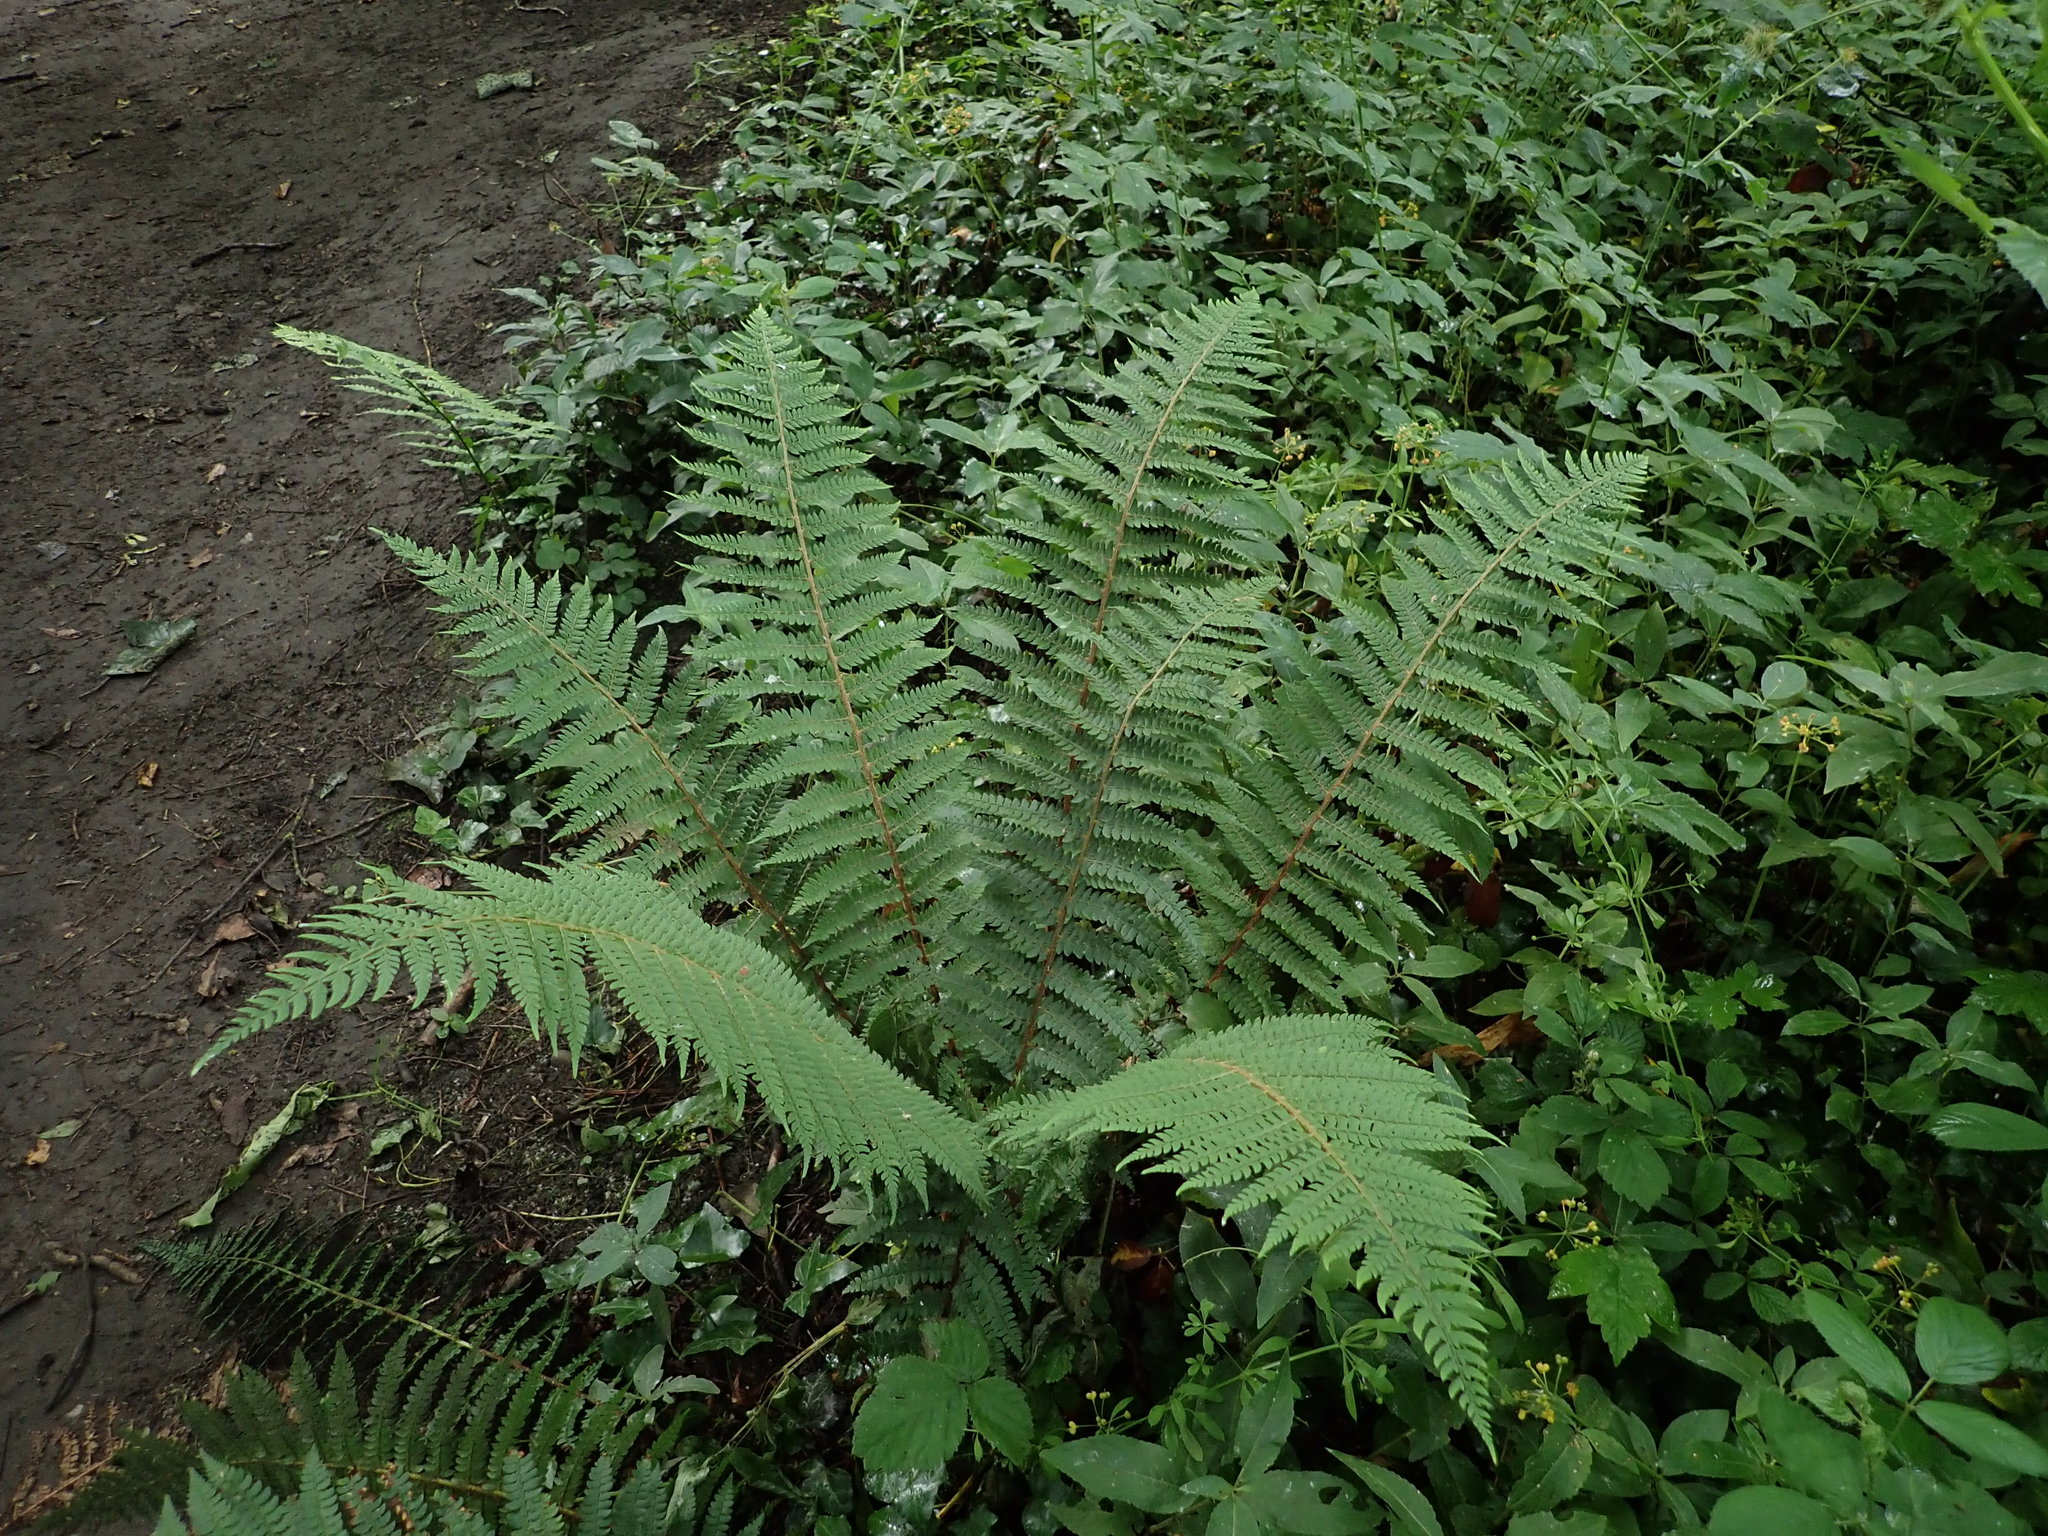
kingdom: Plantae
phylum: Tracheophyta
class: Polypodiopsida
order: Polypodiales
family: Dryopteridaceae
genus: Polystichum
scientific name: Polystichum setiferum
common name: Soft shield-fern
